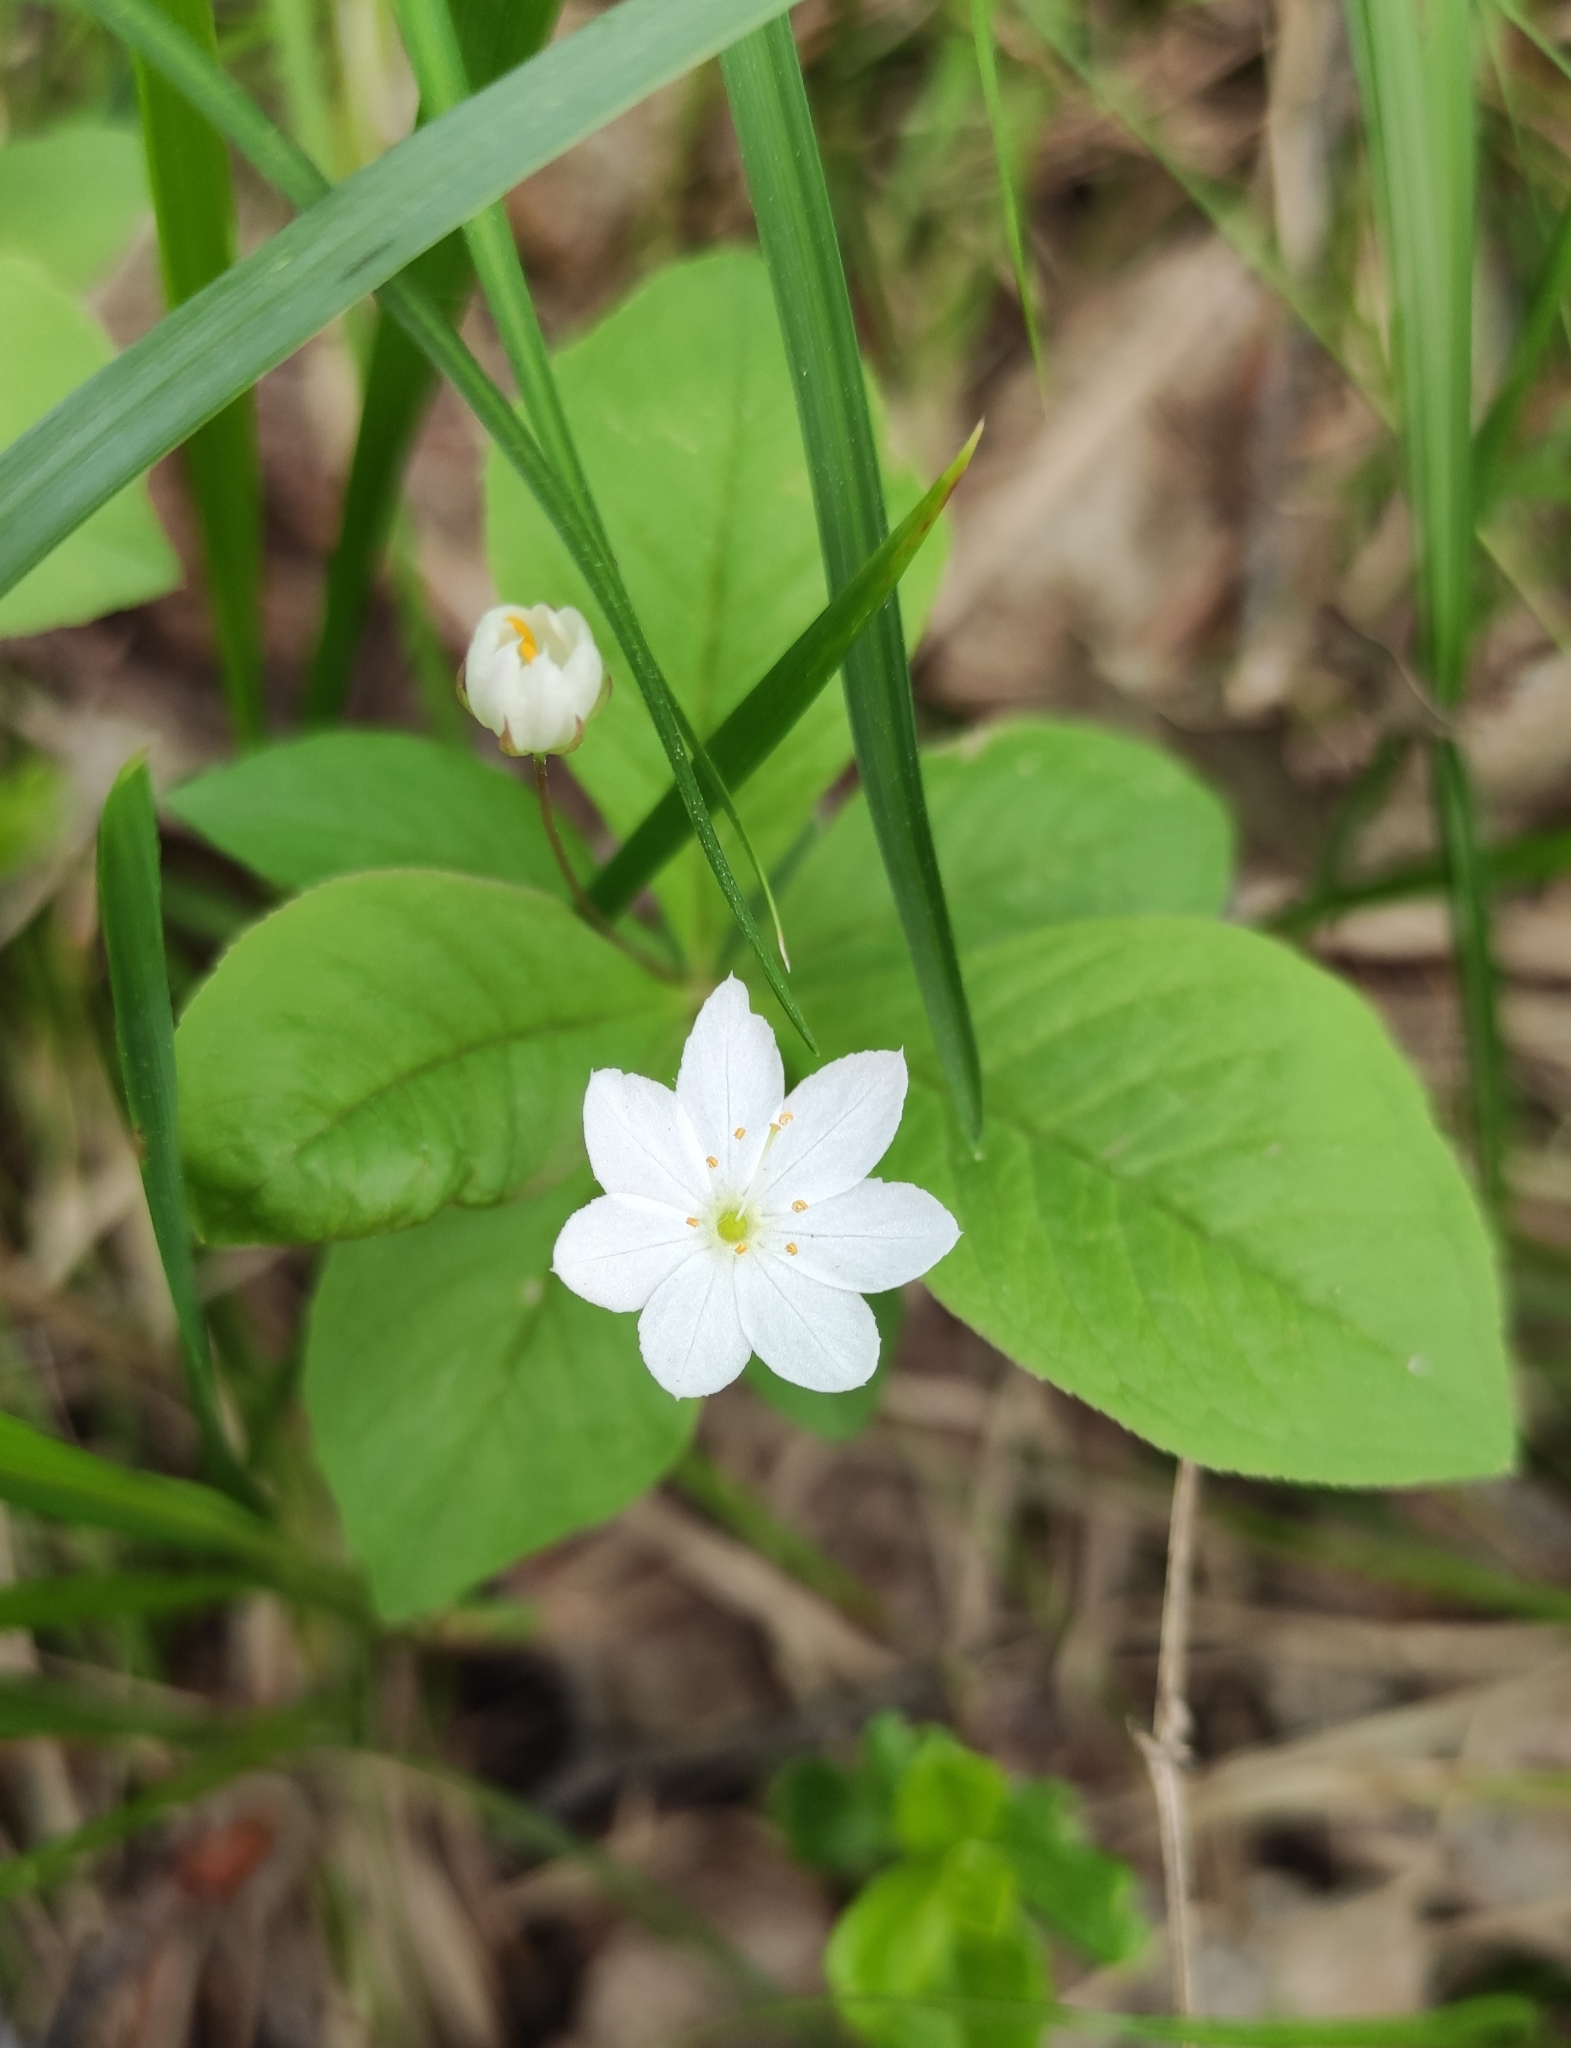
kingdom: Plantae
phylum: Tracheophyta
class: Magnoliopsida
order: Ericales
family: Primulaceae
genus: Lysimachia
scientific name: Lysimachia europaea
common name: Arctic starflower
